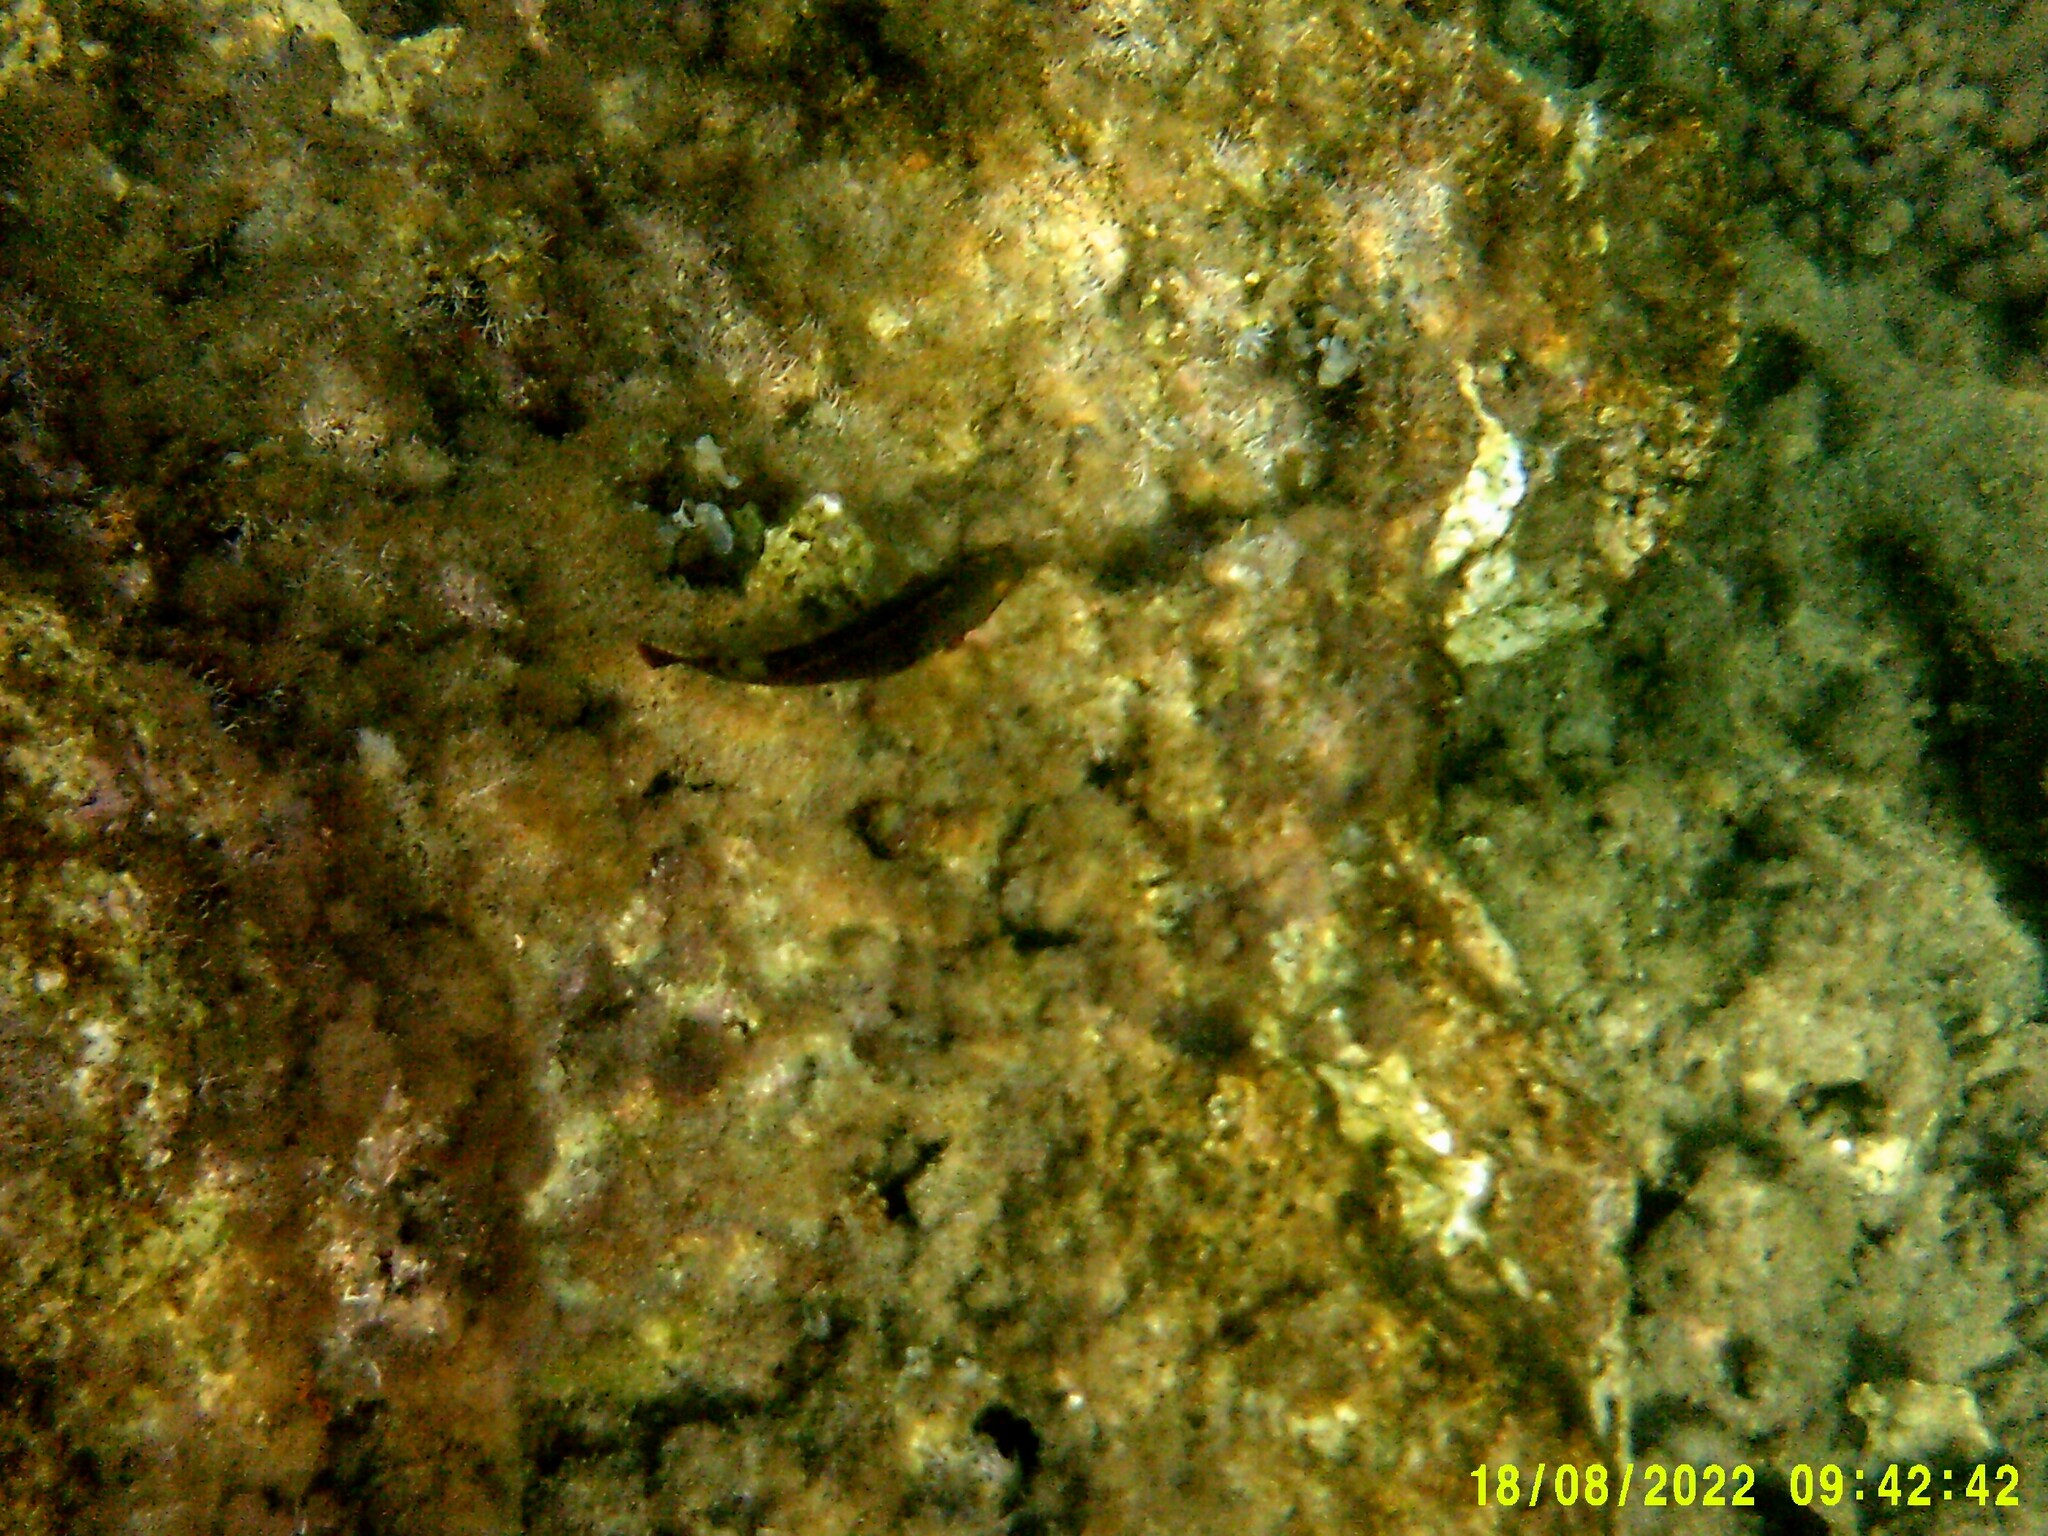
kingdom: Animalia
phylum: Chordata
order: Perciformes
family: Scaridae
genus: Sparisoma
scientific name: Sparisoma cretense
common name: Parrotfish
